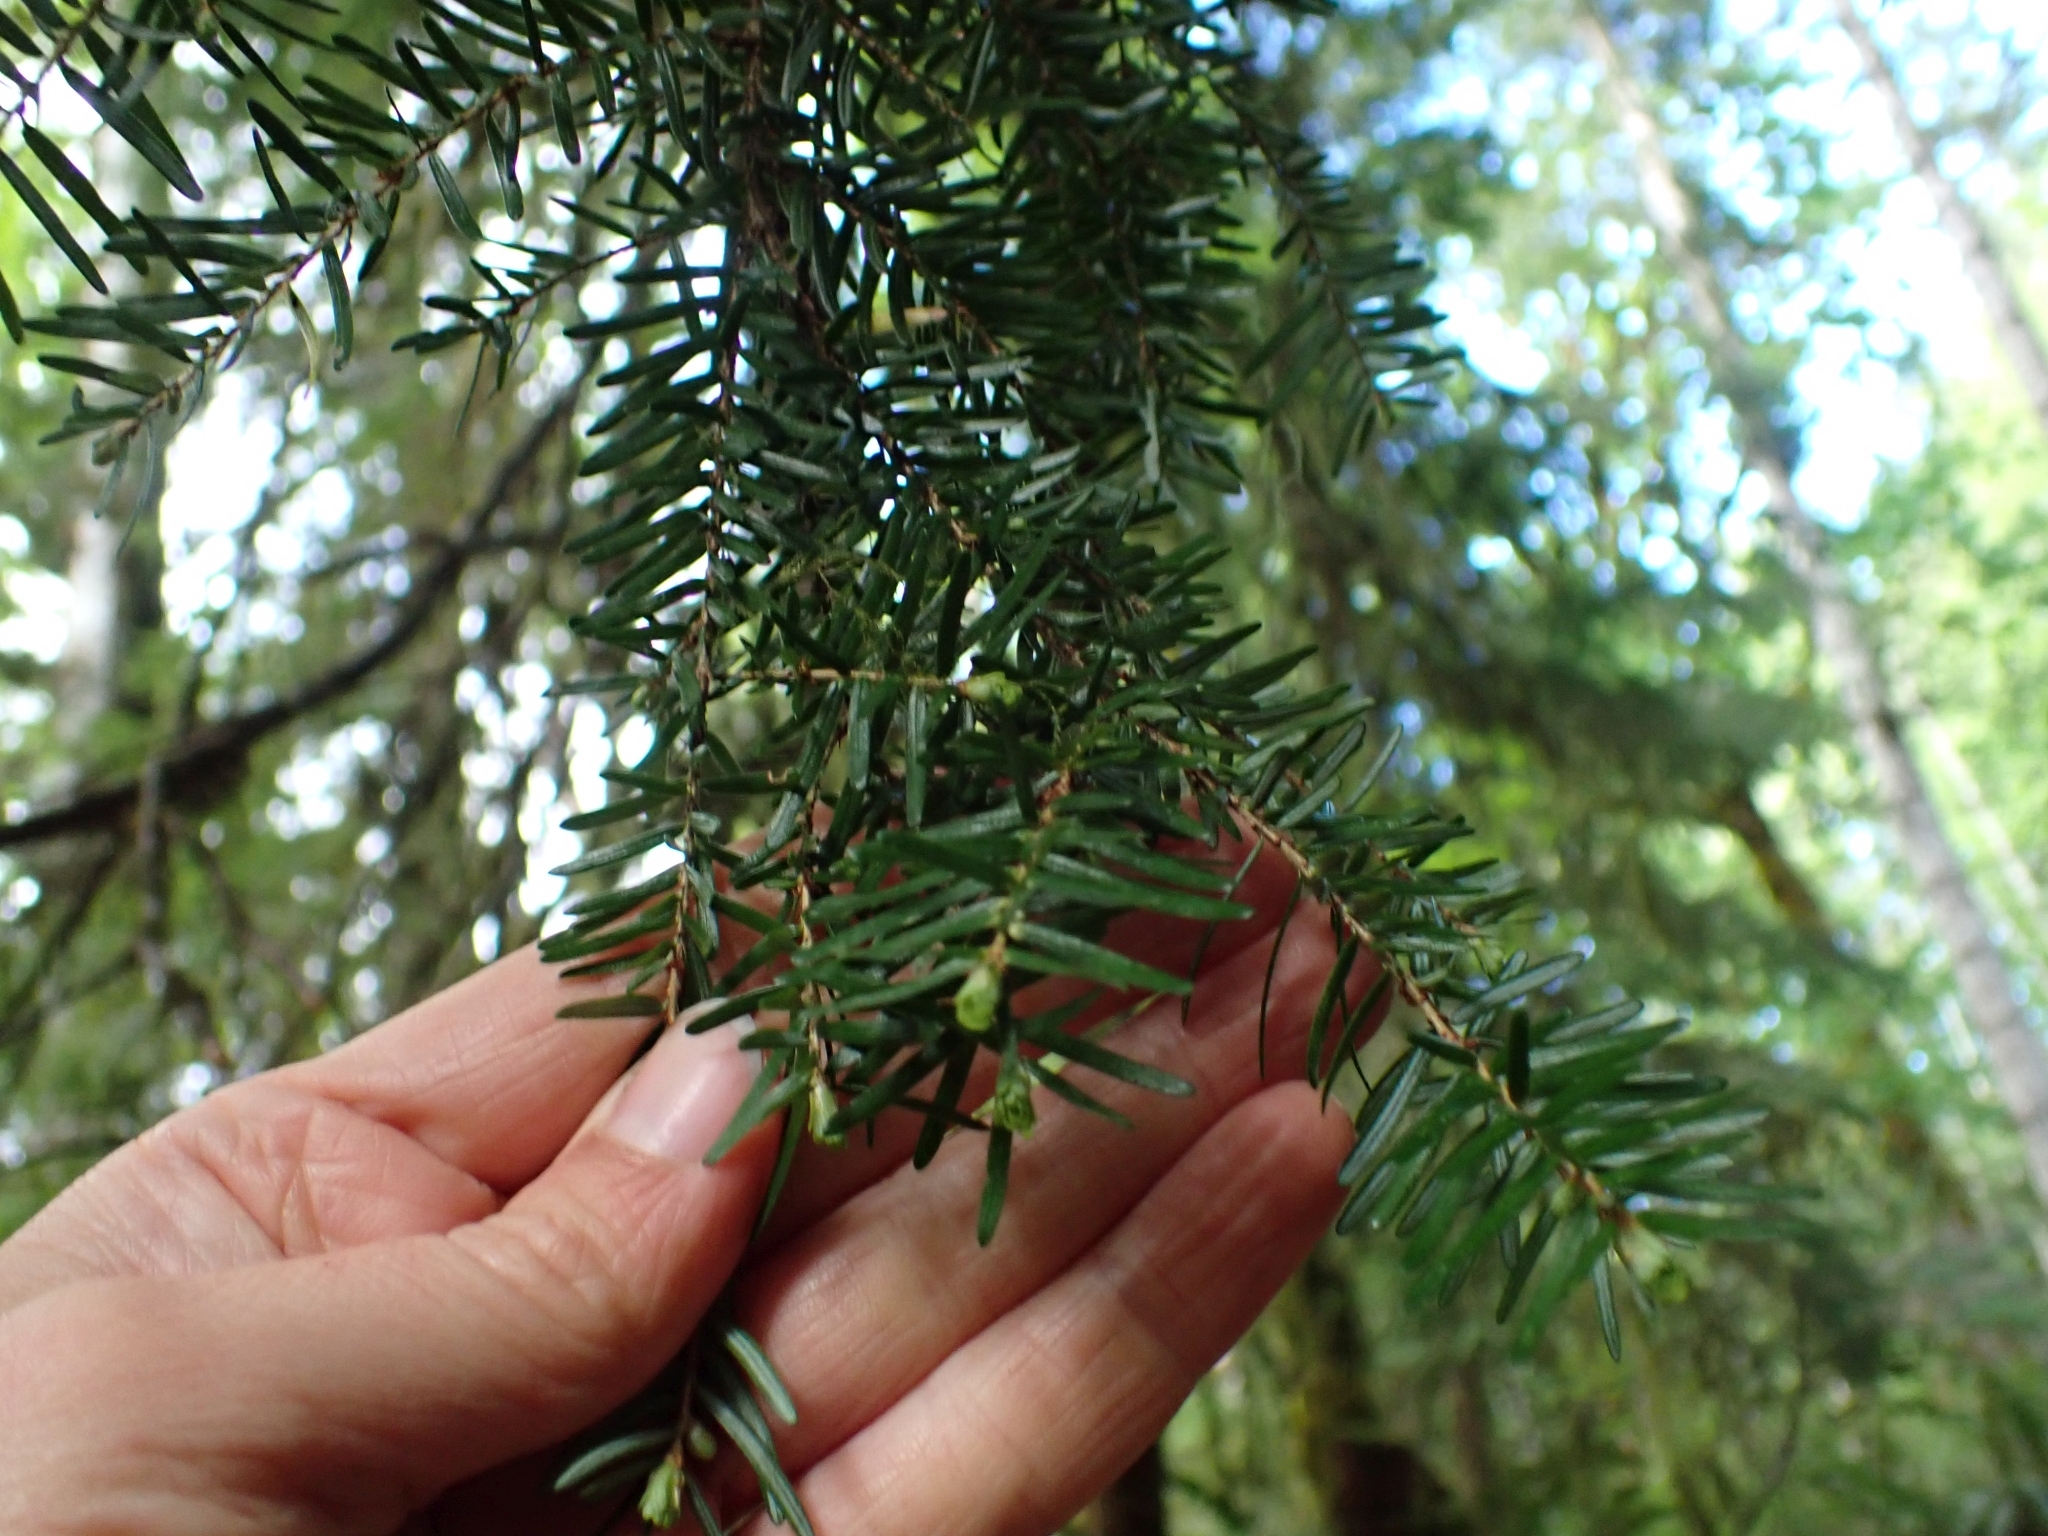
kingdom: Plantae
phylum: Tracheophyta
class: Pinopsida
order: Pinales
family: Pinaceae
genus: Tsuga
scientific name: Tsuga heterophylla
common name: Western hemlock
